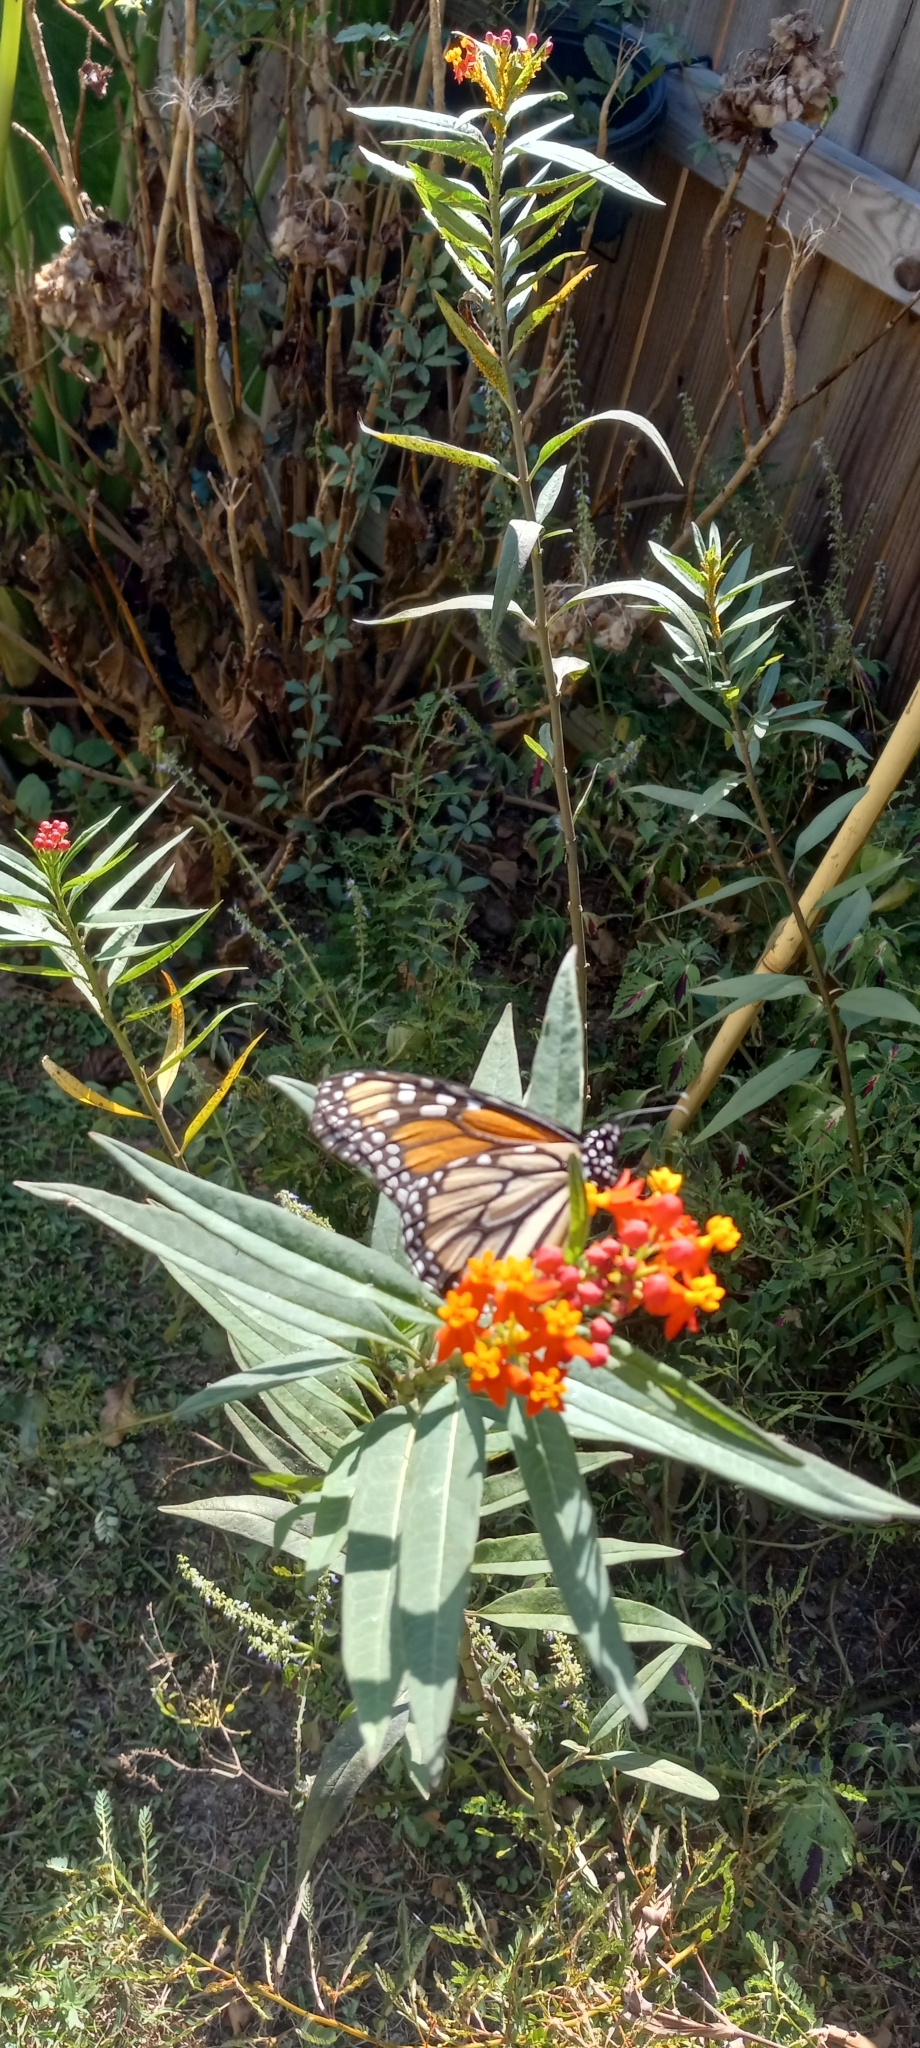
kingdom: Animalia
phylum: Arthropoda
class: Insecta
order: Lepidoptera
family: Nymphalidae
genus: Danaus
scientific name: Danaus plexippus
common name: Monarch
